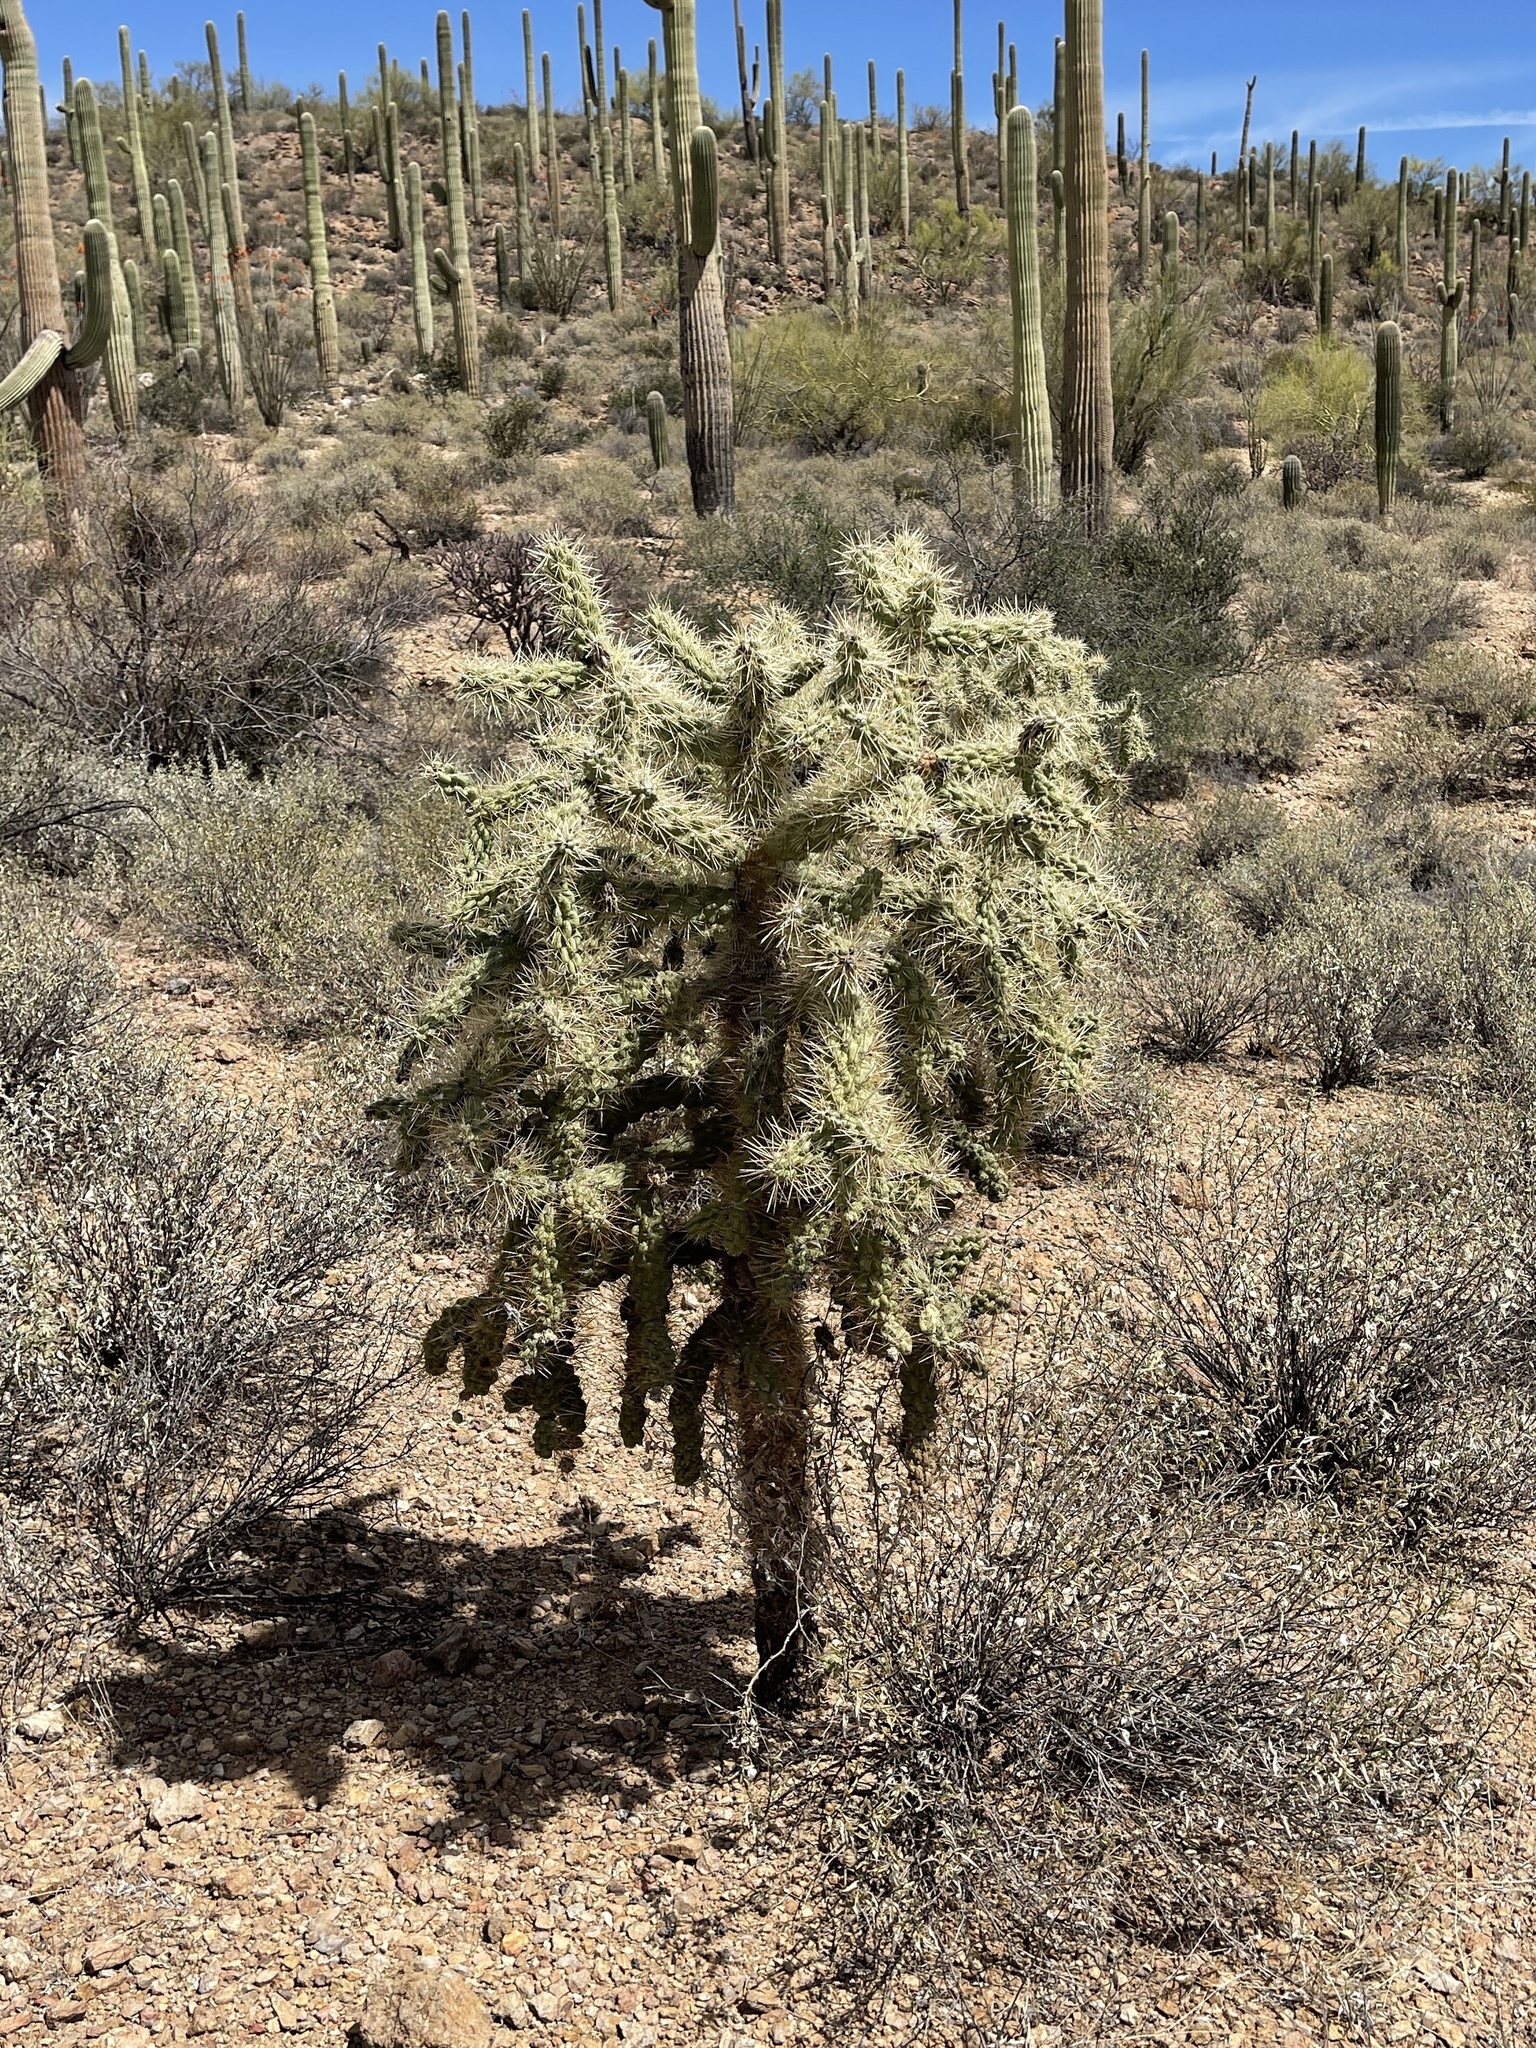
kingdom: Plantae
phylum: Tracheophyta
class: Magnoliopsida
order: Caryophyllales
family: Cactaceae
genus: Cylindropuntia
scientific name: Cylindropuntia fulgida
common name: Jumping cholla
